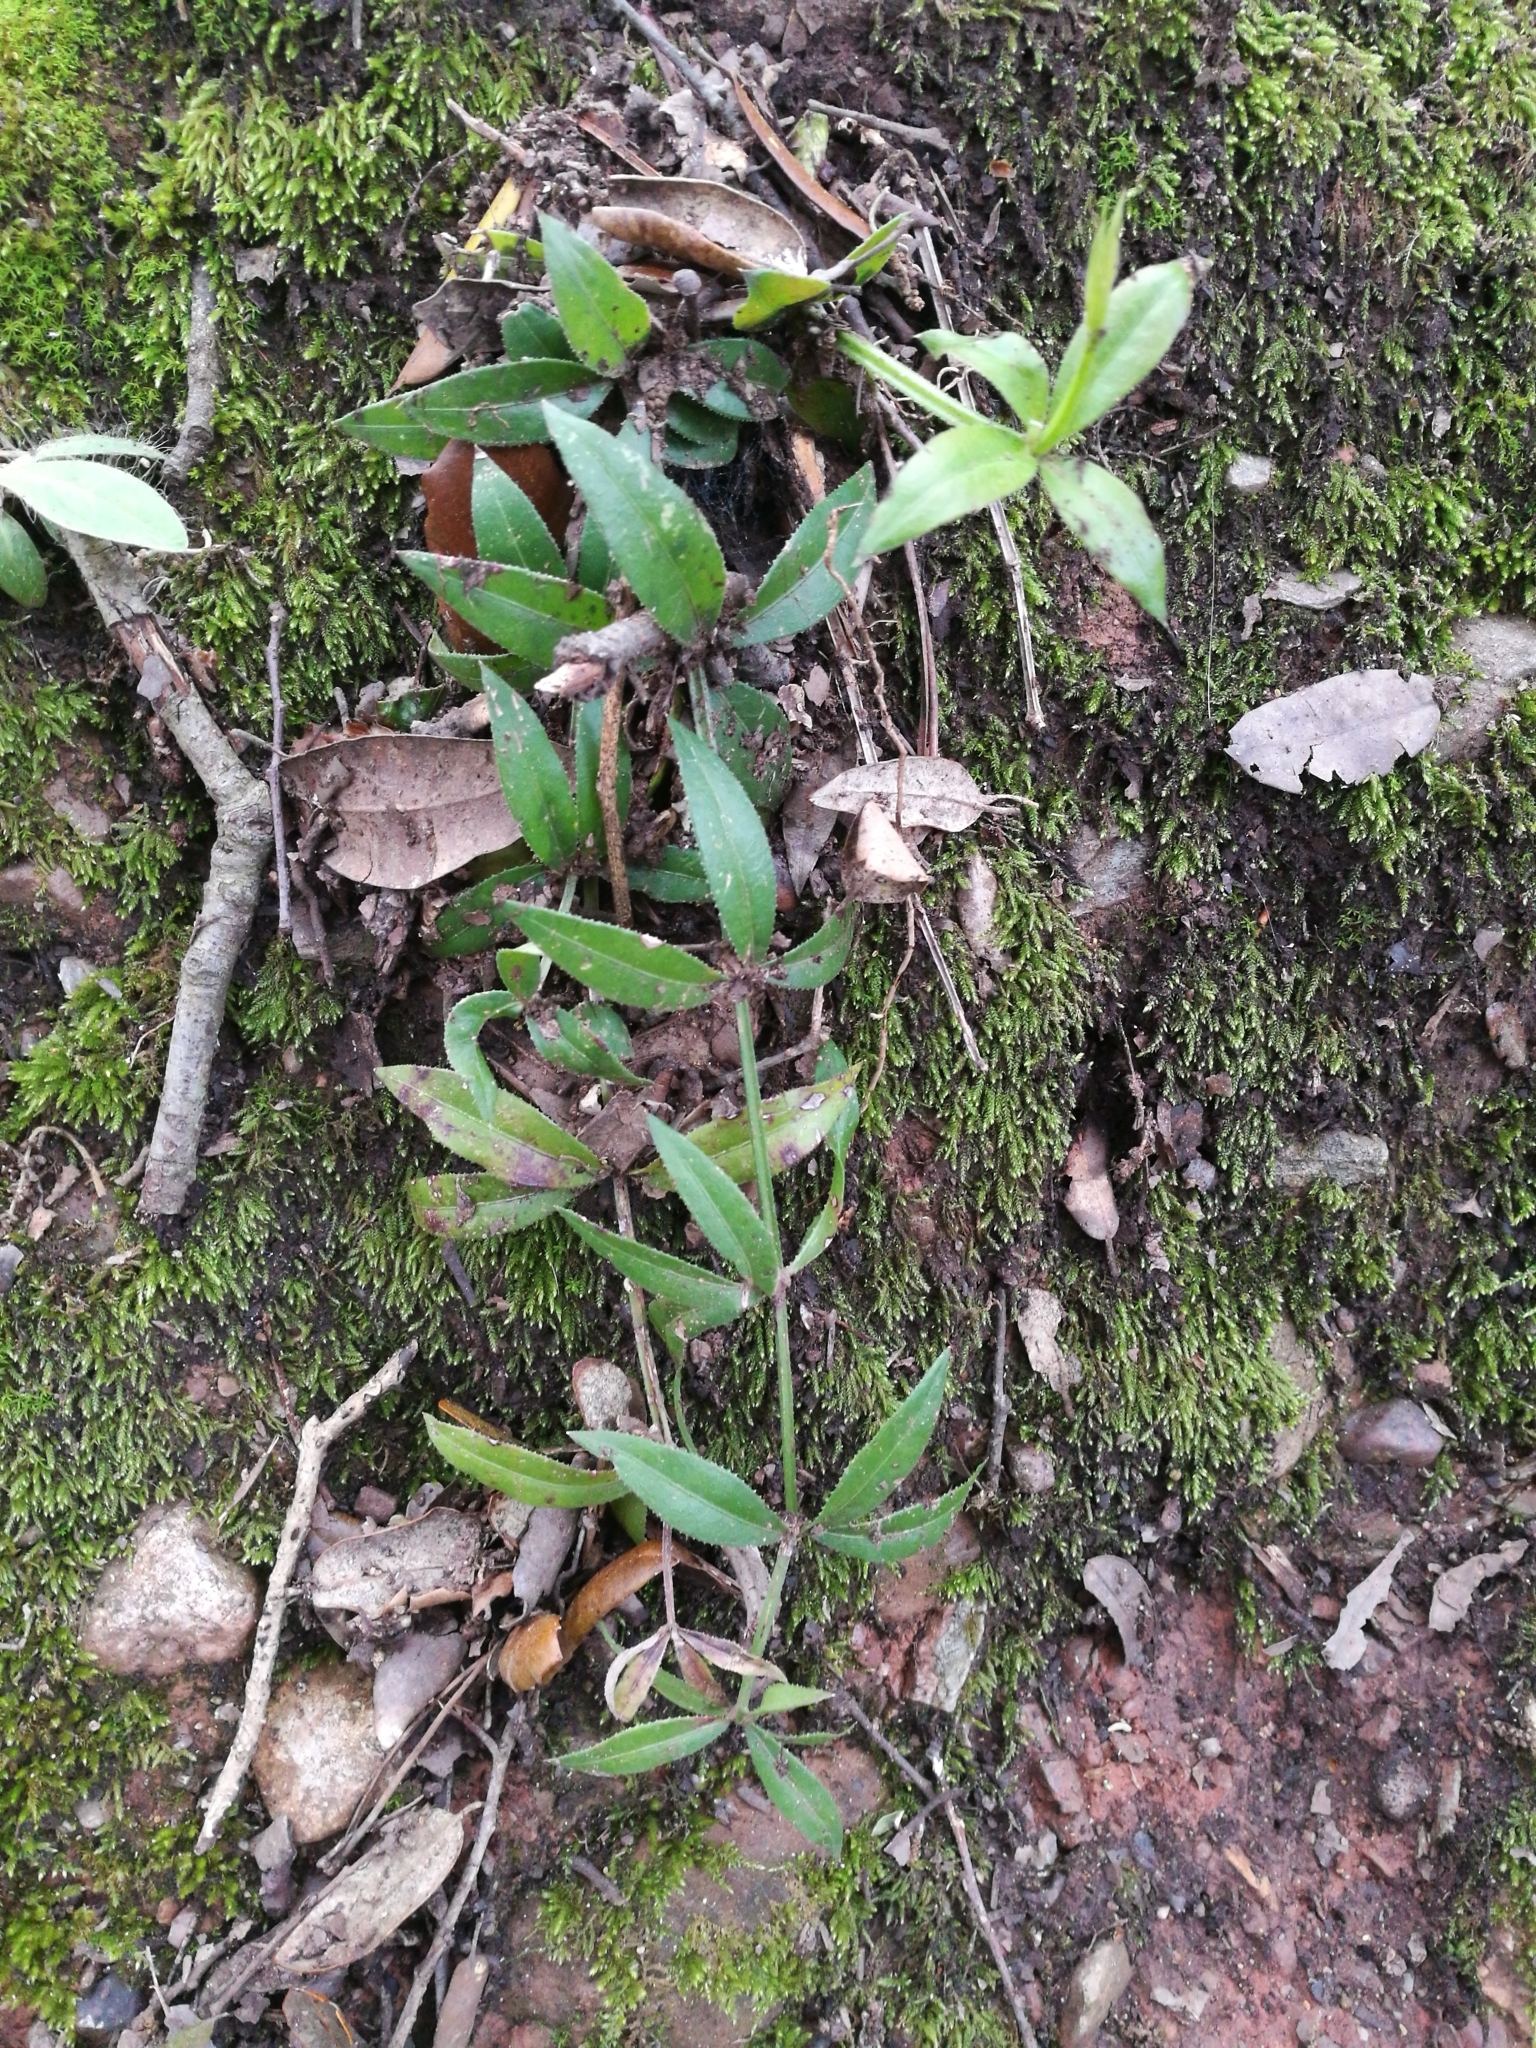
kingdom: Plantae
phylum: Tracheophyta
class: Magnoliopsida
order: Gentianales
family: Rubiaceae
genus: Rubia
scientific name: Rubia peregrina
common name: Wild madder
